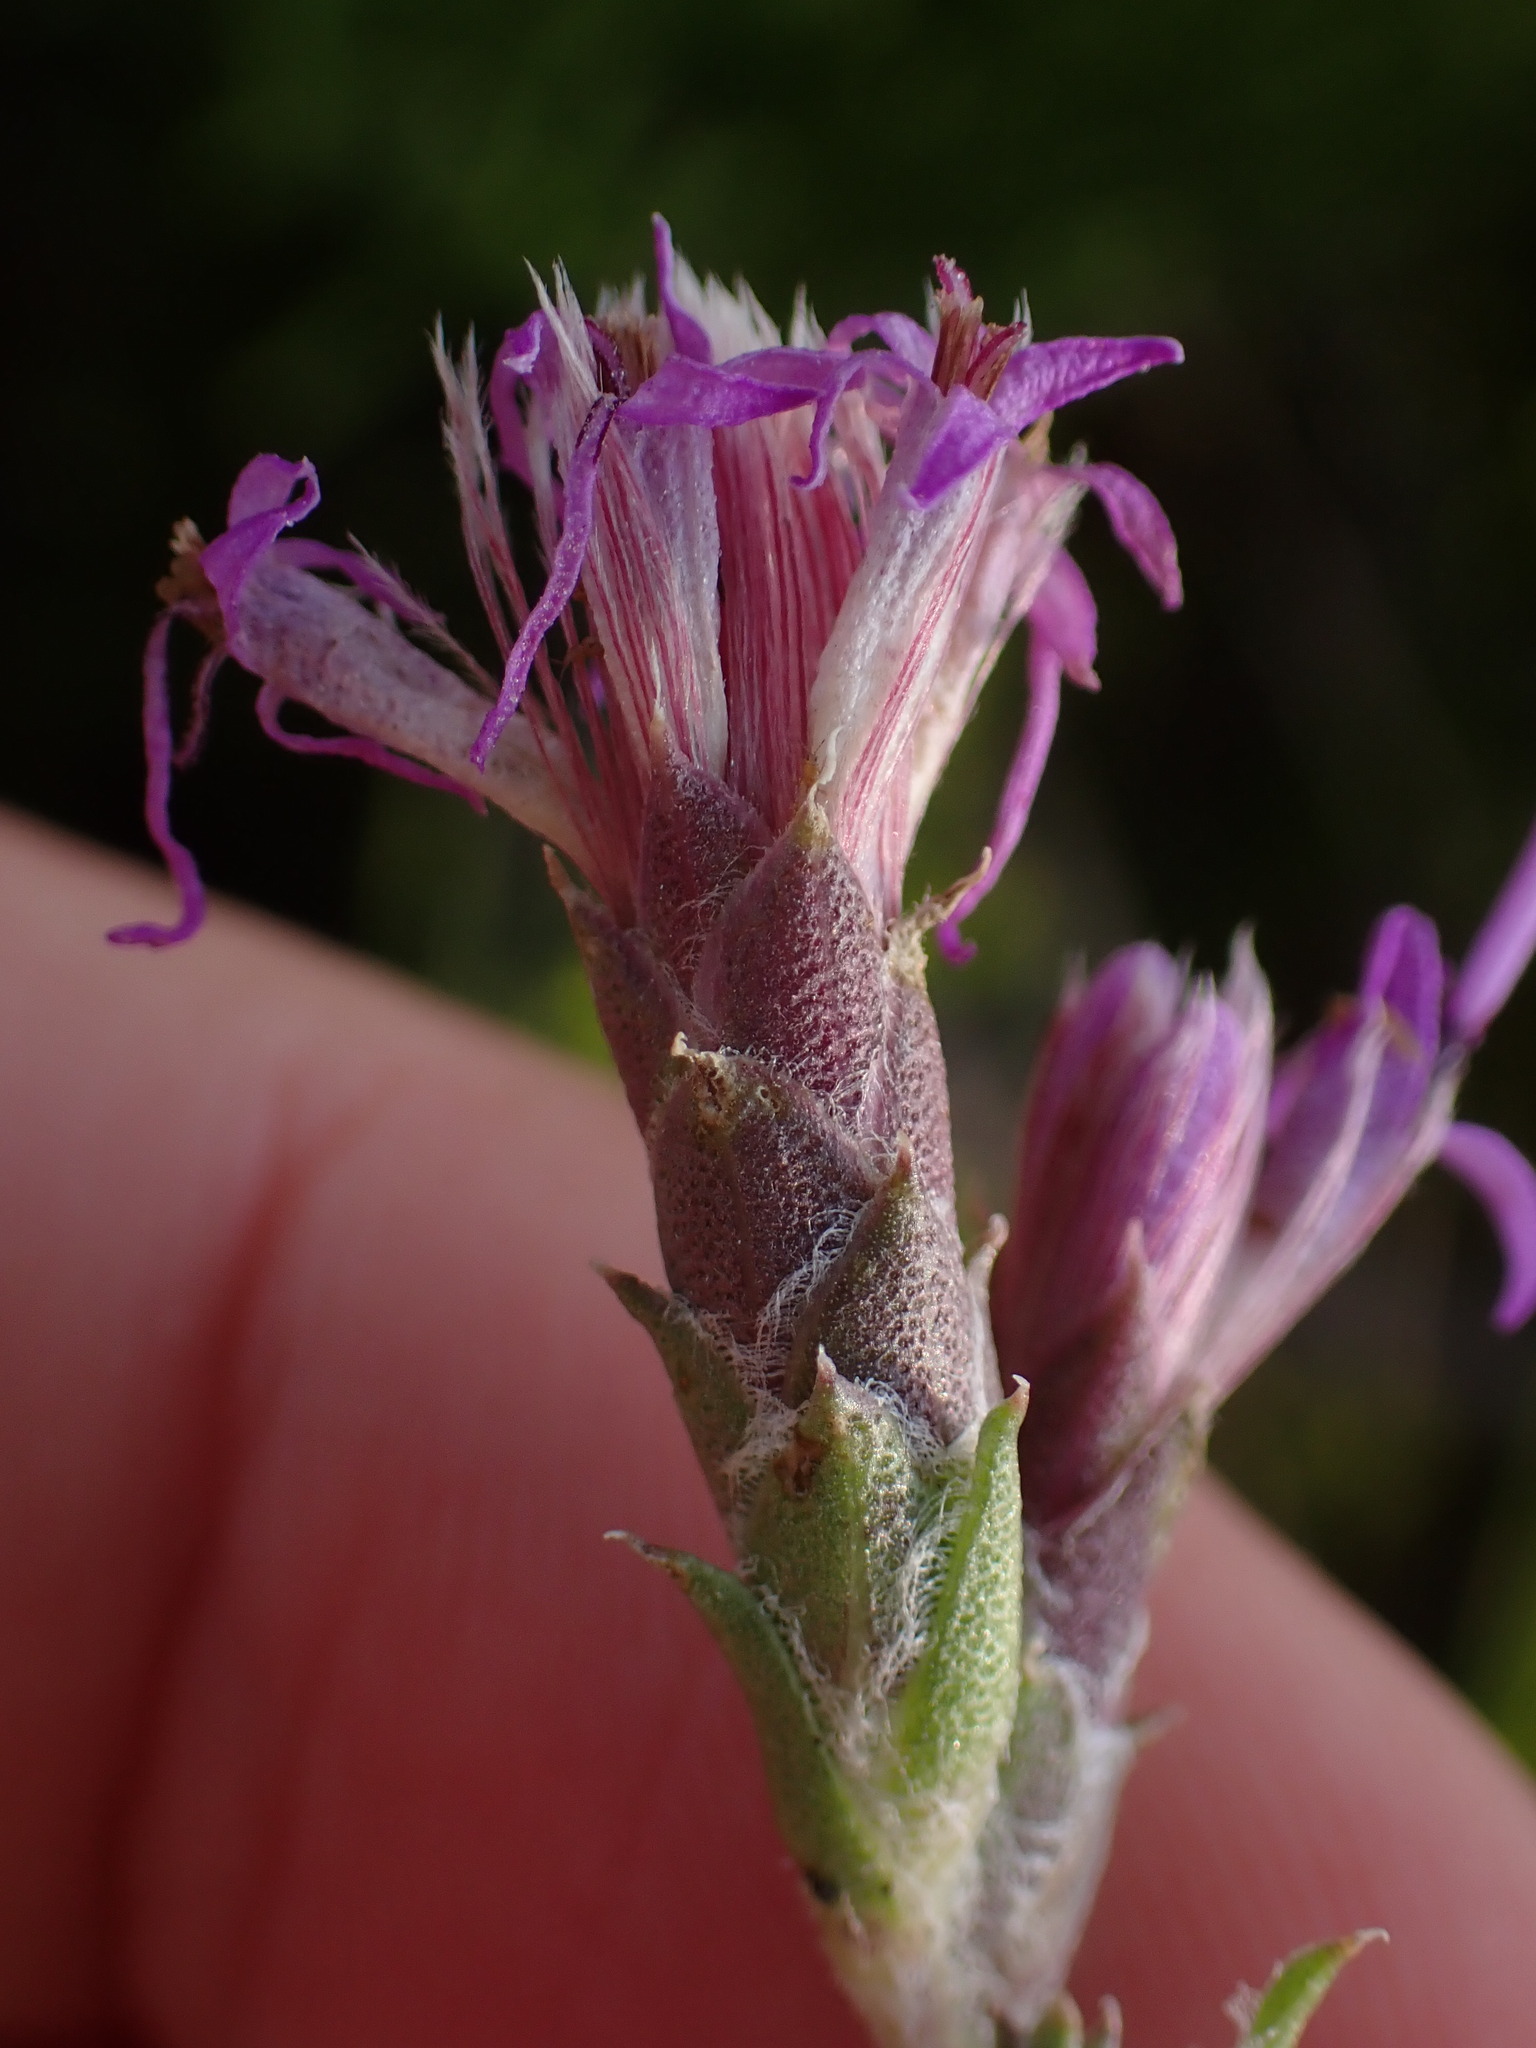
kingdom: Plantae
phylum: Tracheophyta
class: Magnoliopsida
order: Asterales
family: Asteraceae
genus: Liatris
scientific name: Liatris punctata
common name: Dotted gayfeather
